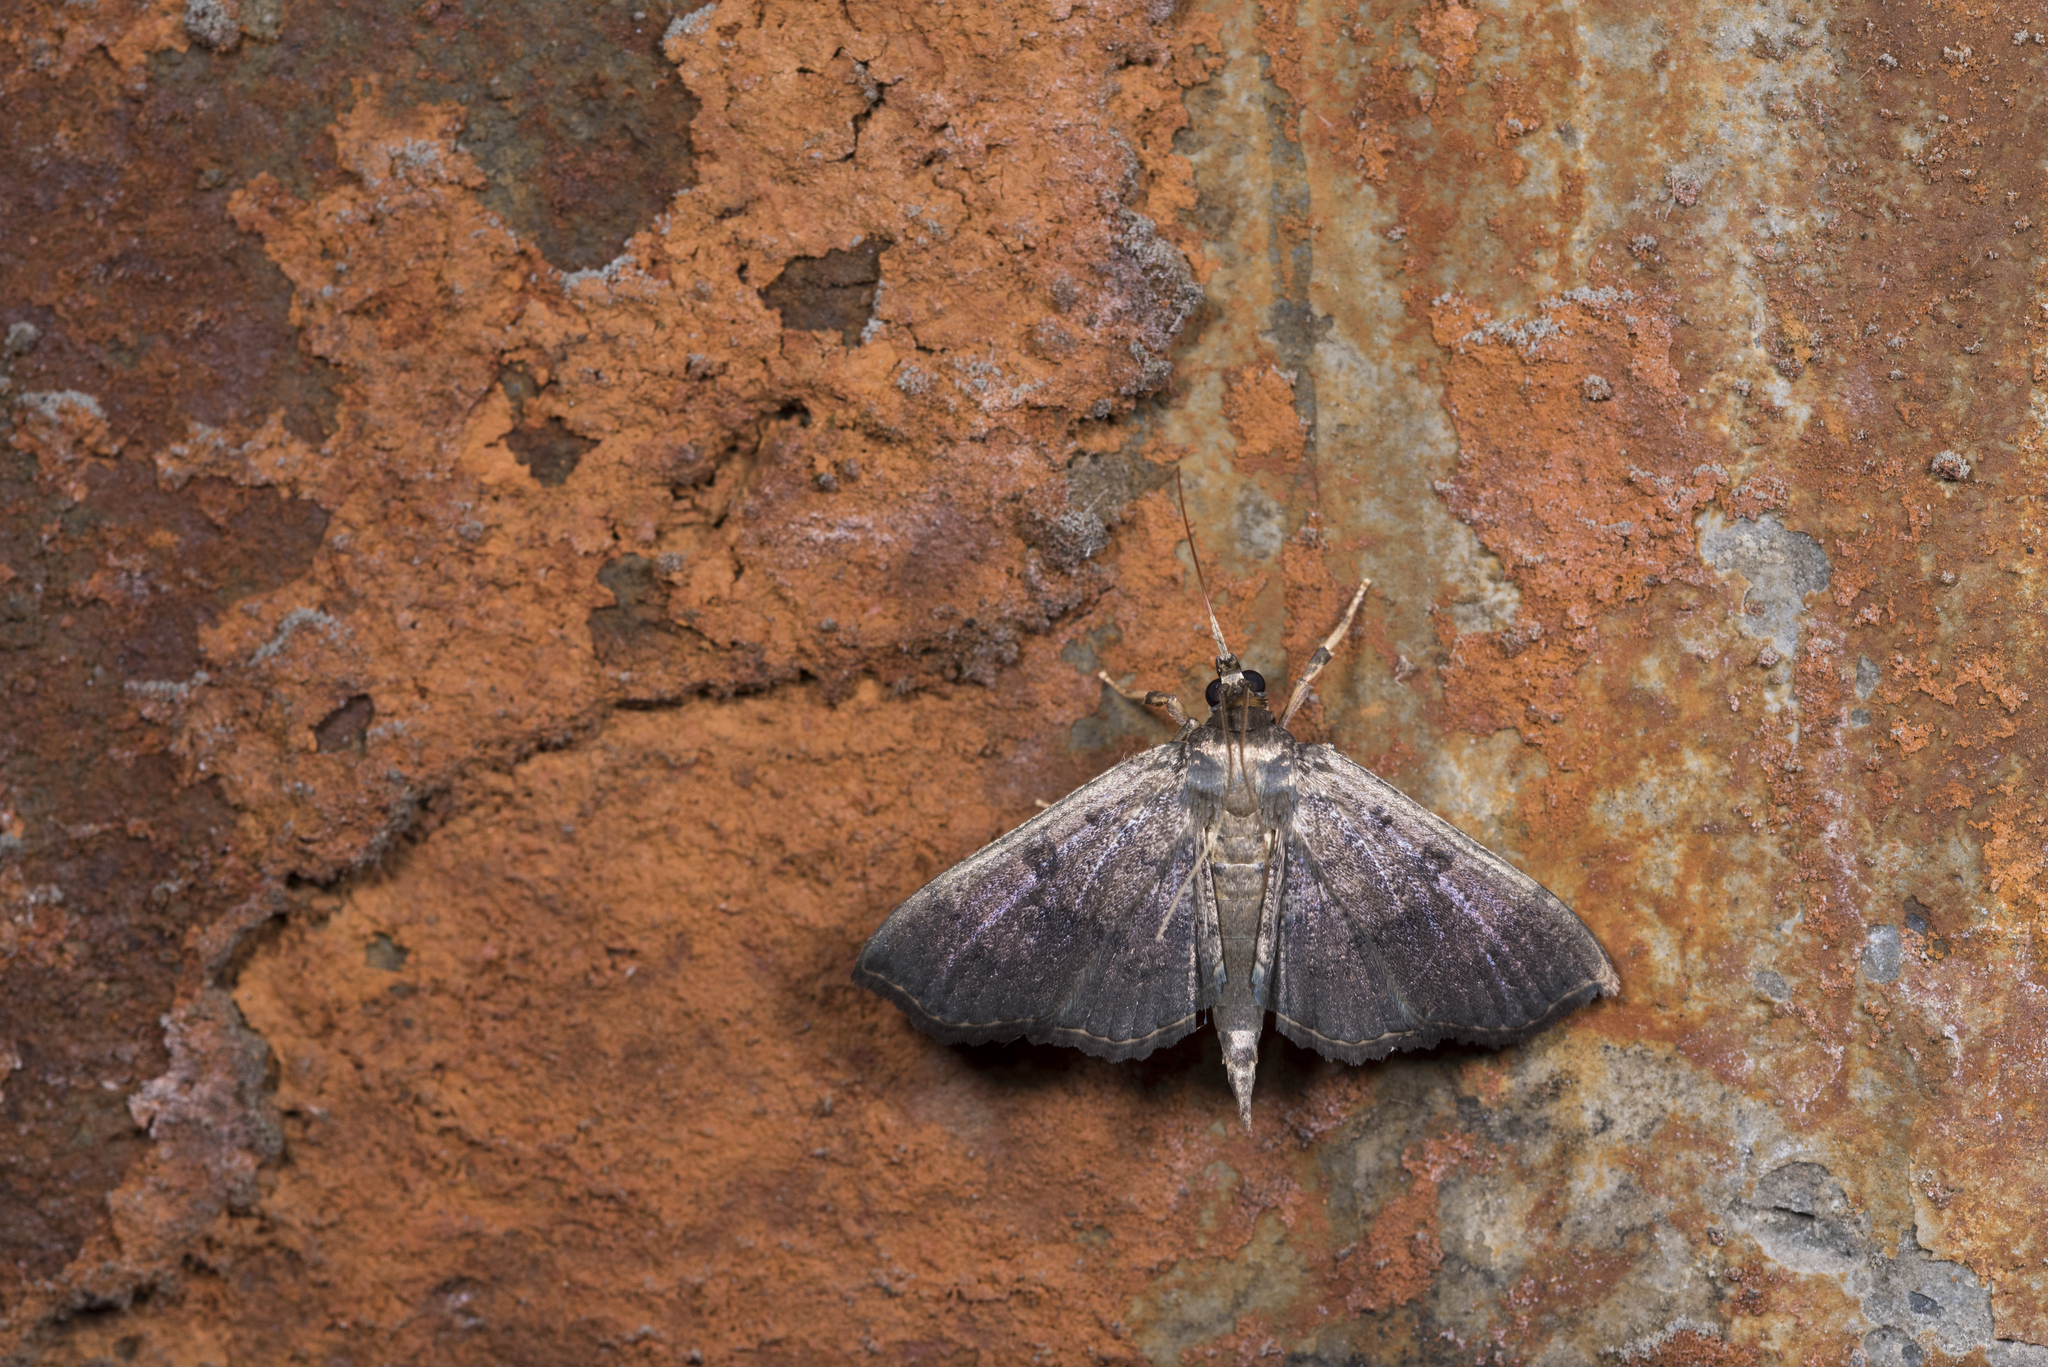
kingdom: Animalia
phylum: Arthropoda
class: Insecta
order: Lepidoptera
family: Crambidae
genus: Ceratarcha
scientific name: Ceratarcha umbrosa
